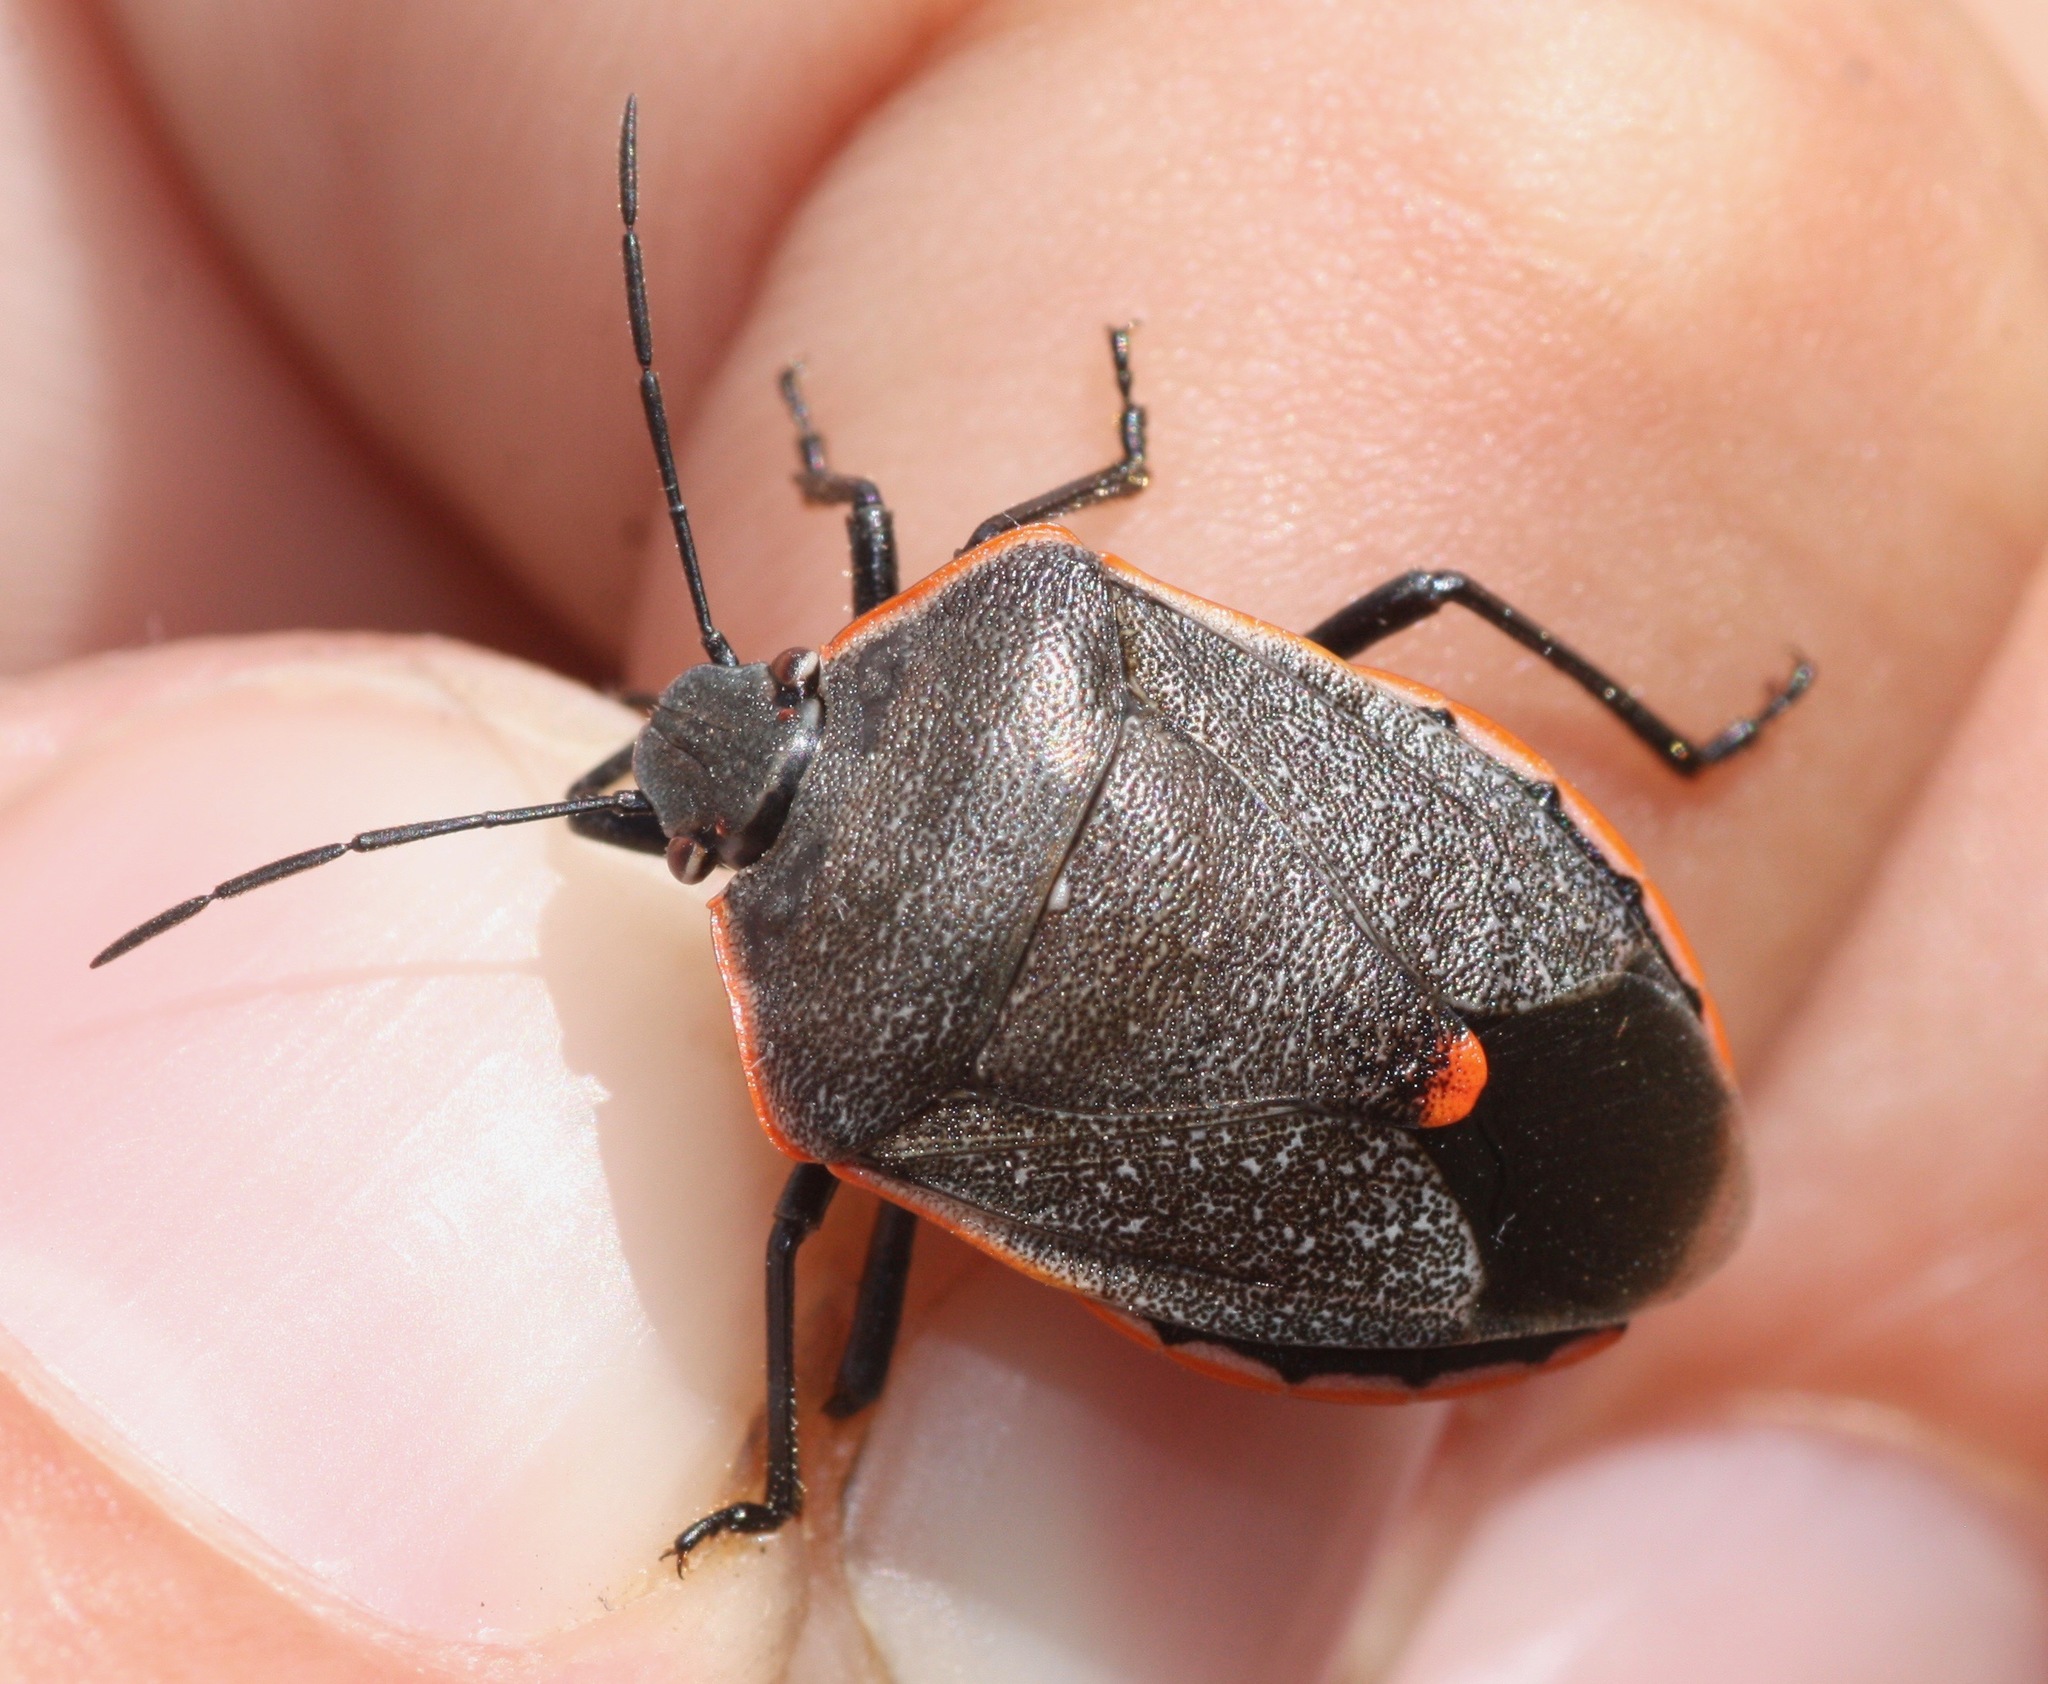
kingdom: Animalia
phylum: Arthropoda
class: Insecta
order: Hemiptera
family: Pentatomidae
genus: Chlorochroa
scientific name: Chlorochroa ligata
